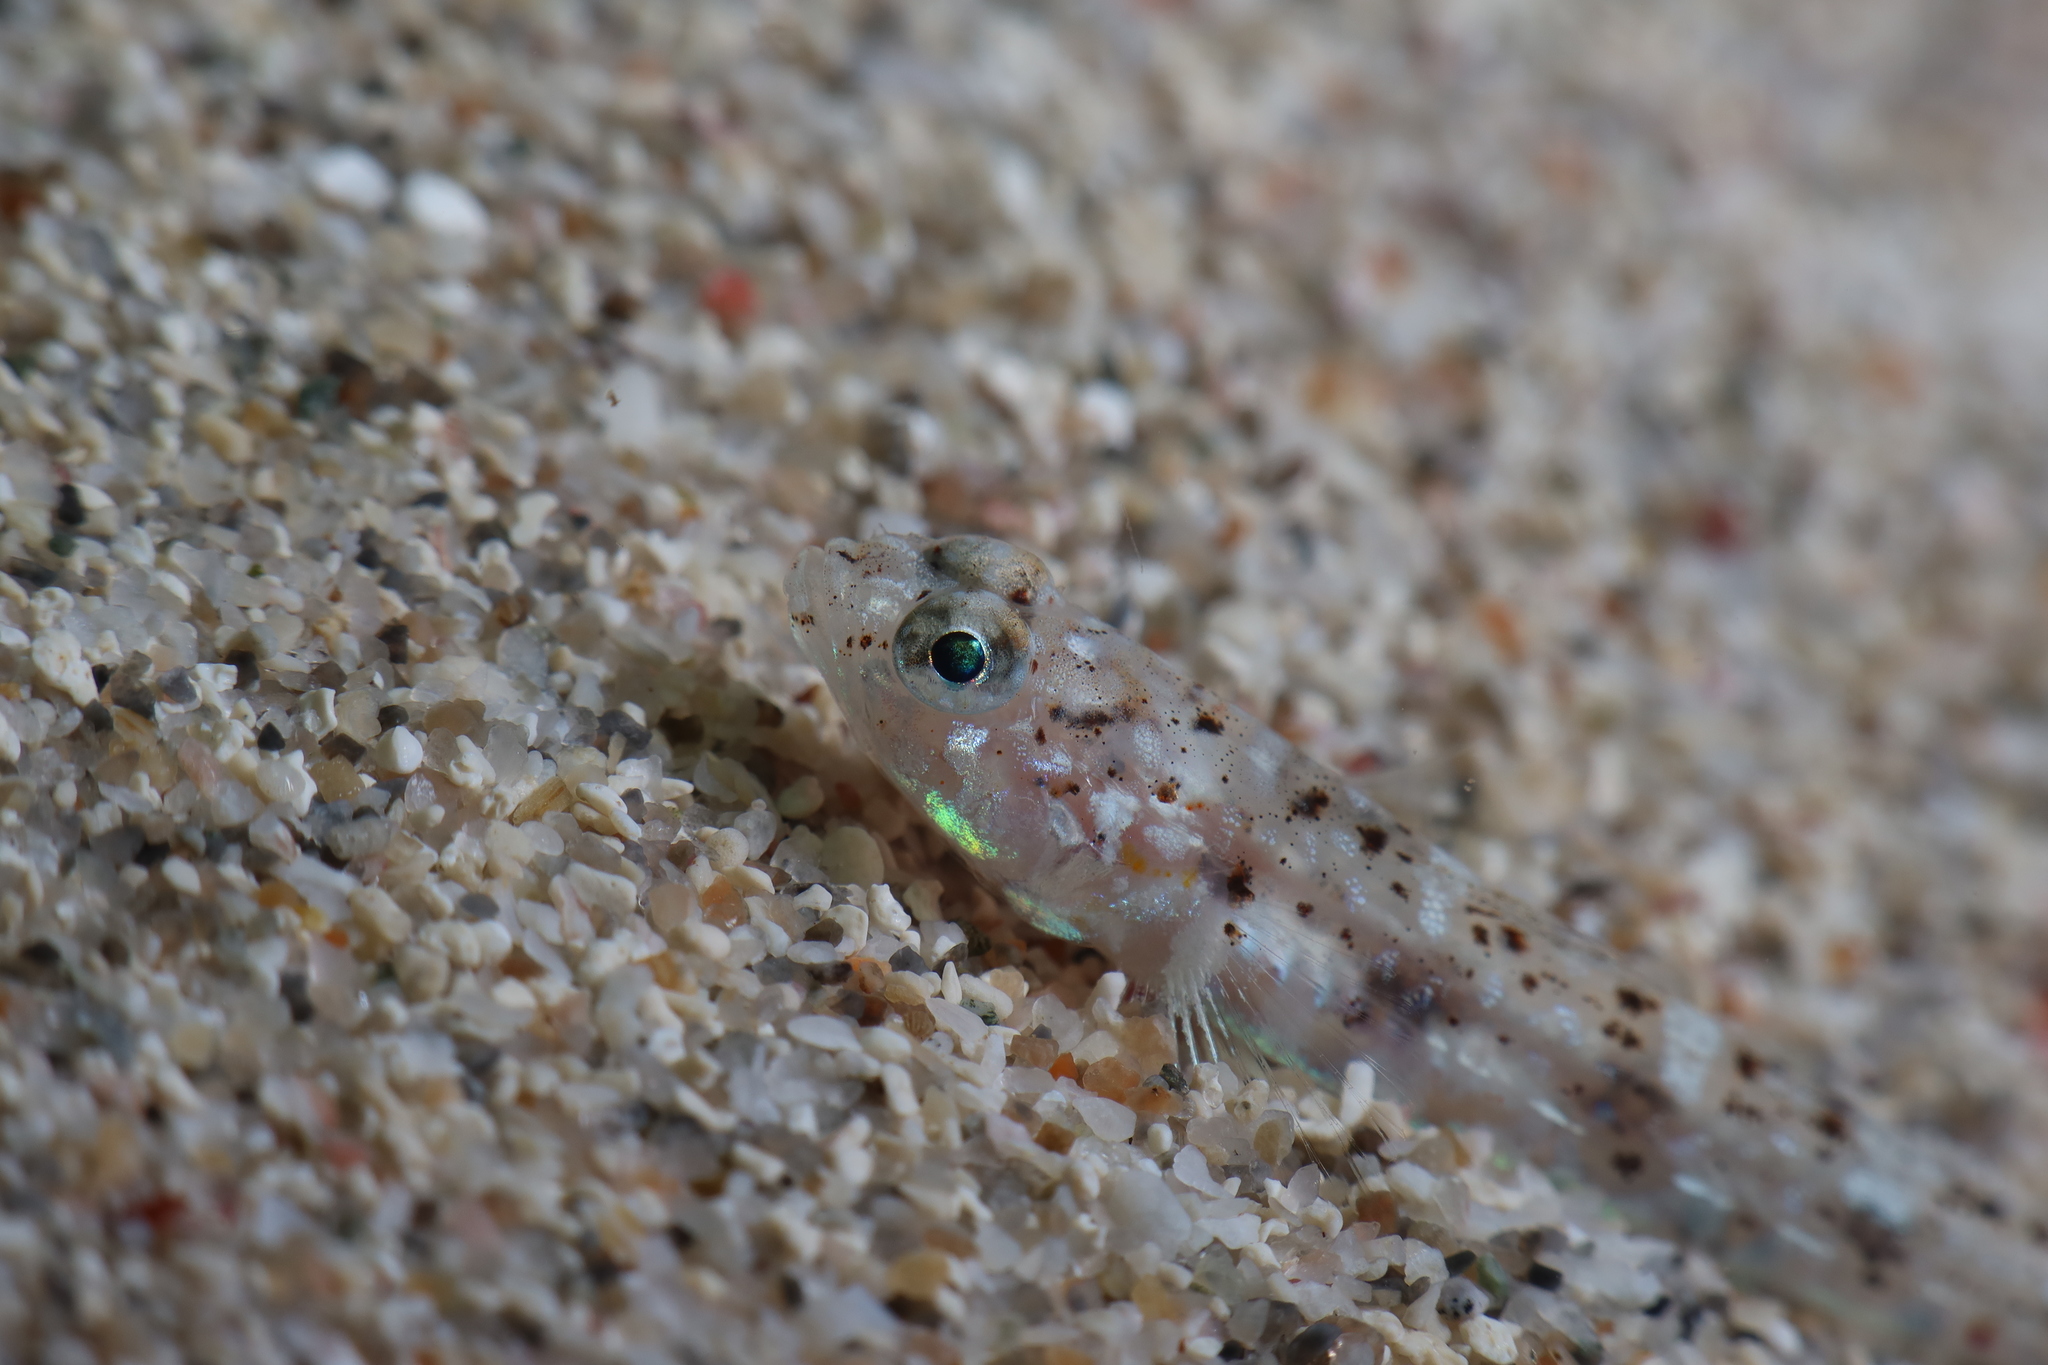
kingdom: Animalia
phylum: Chordata
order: Perciformes
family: Gobiidae
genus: Pomatoschistus
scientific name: Pomatoschistus marmoratus
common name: Marbled goby
